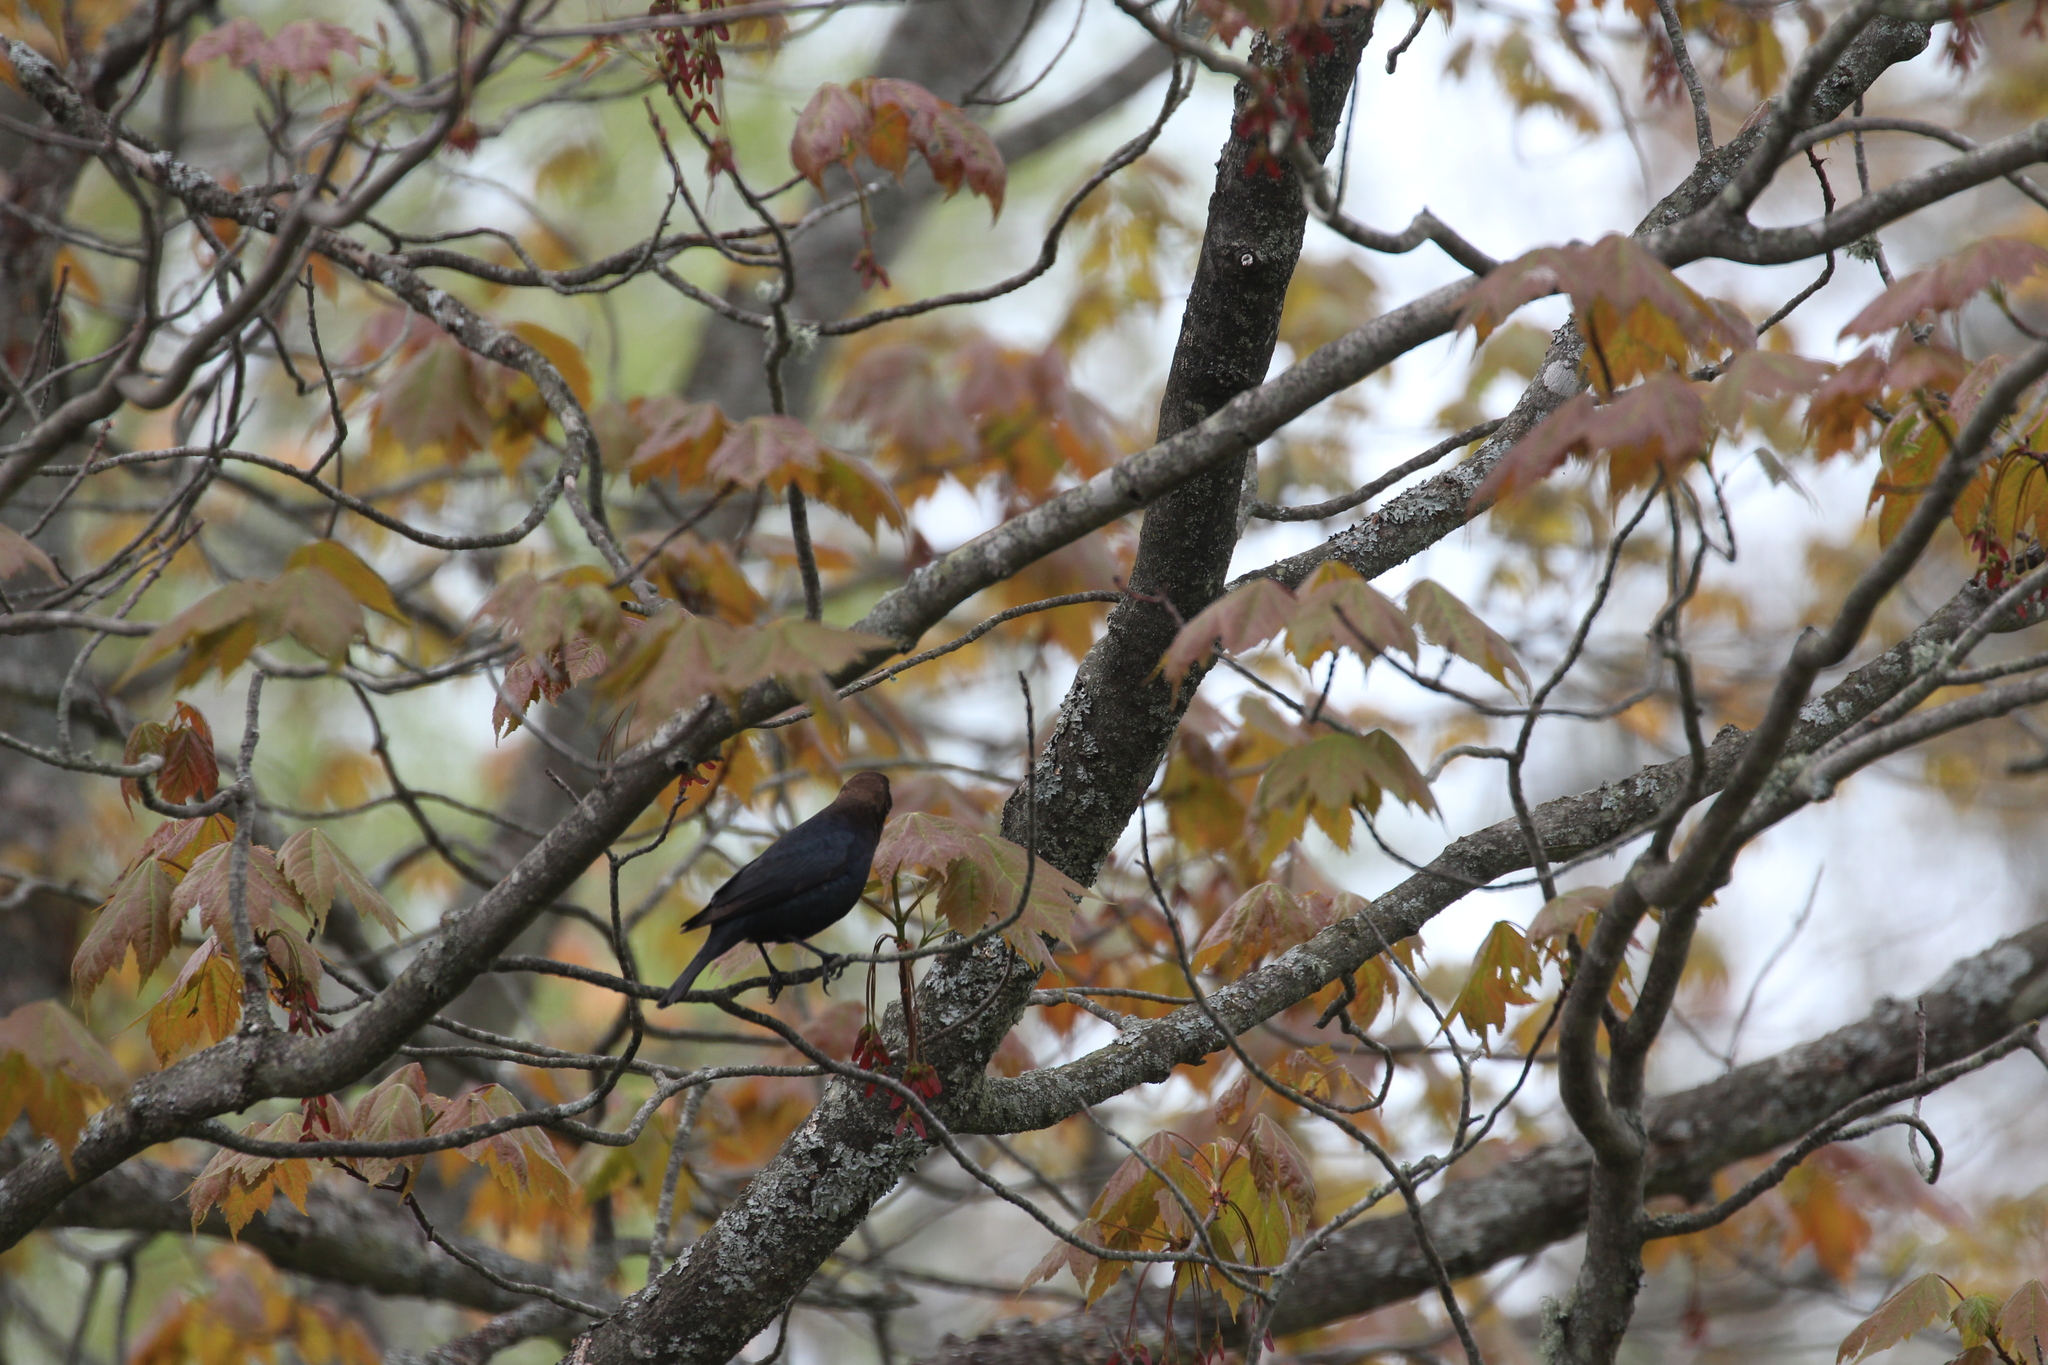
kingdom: Animalia
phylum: Chordata
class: Aves
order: Passeriformes
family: Icteridae
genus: Molothrus
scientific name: Molothrus ater
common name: Brown-headed cowbird
